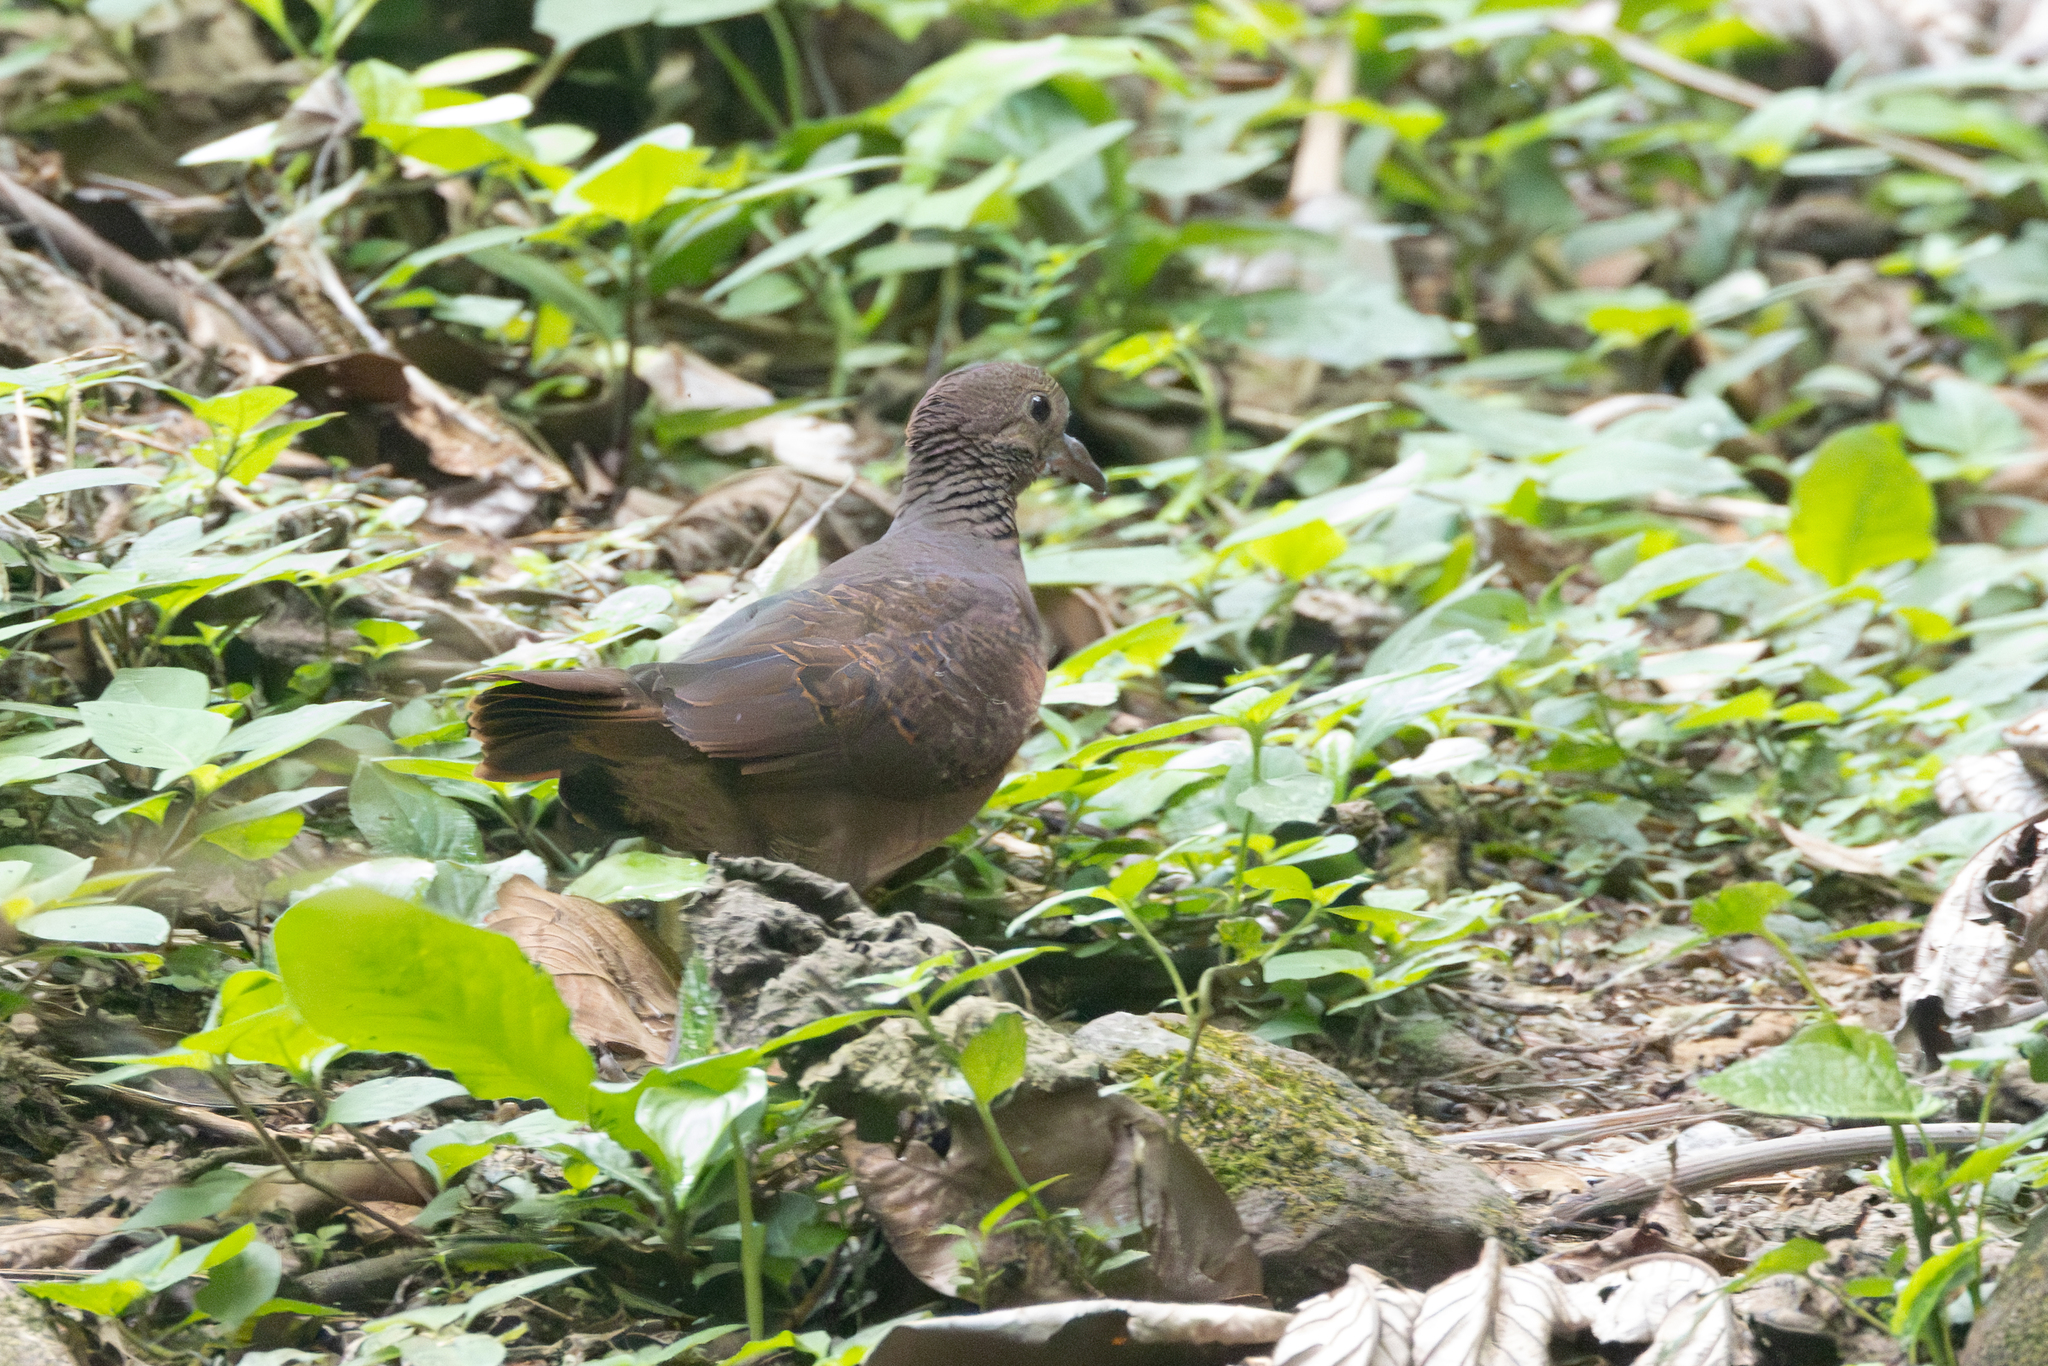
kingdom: Animalia
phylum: Chordata
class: Aves
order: Columbiformes
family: Columbidae
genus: Zentrygon
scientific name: Zentrygon albifacies
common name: White-faced quail-dove
